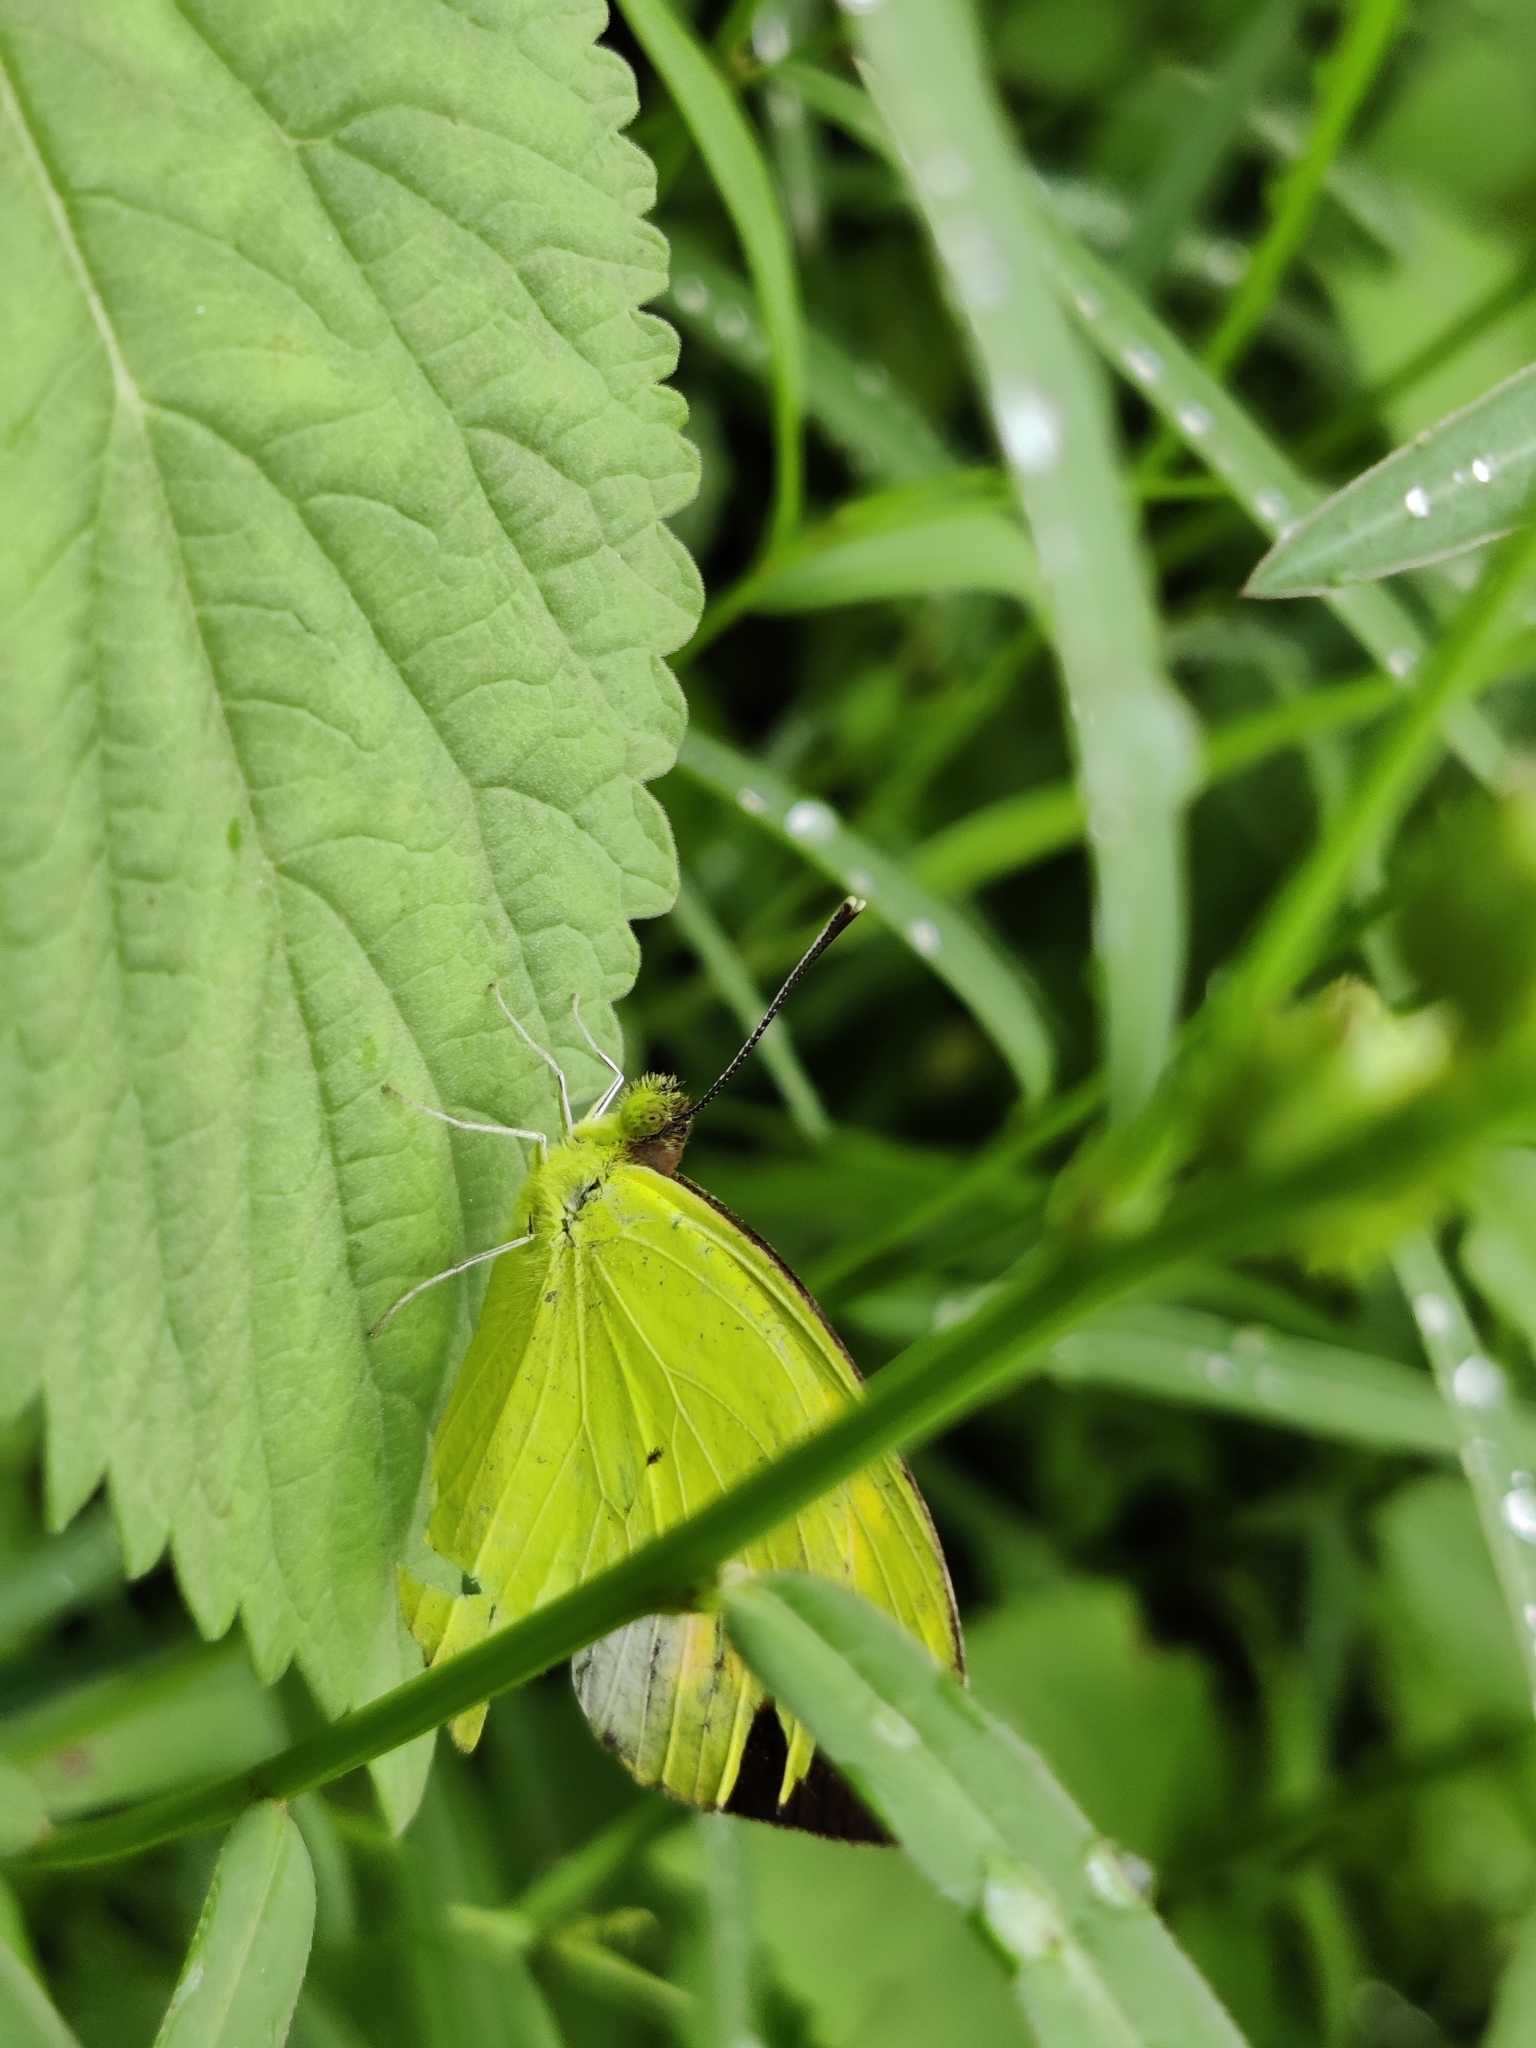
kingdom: Animalia
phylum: Arthropoda
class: Insecta
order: Lepidoptera
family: Pieridae
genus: Ixias
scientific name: Ixias pyrene
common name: Yellow orange tip
